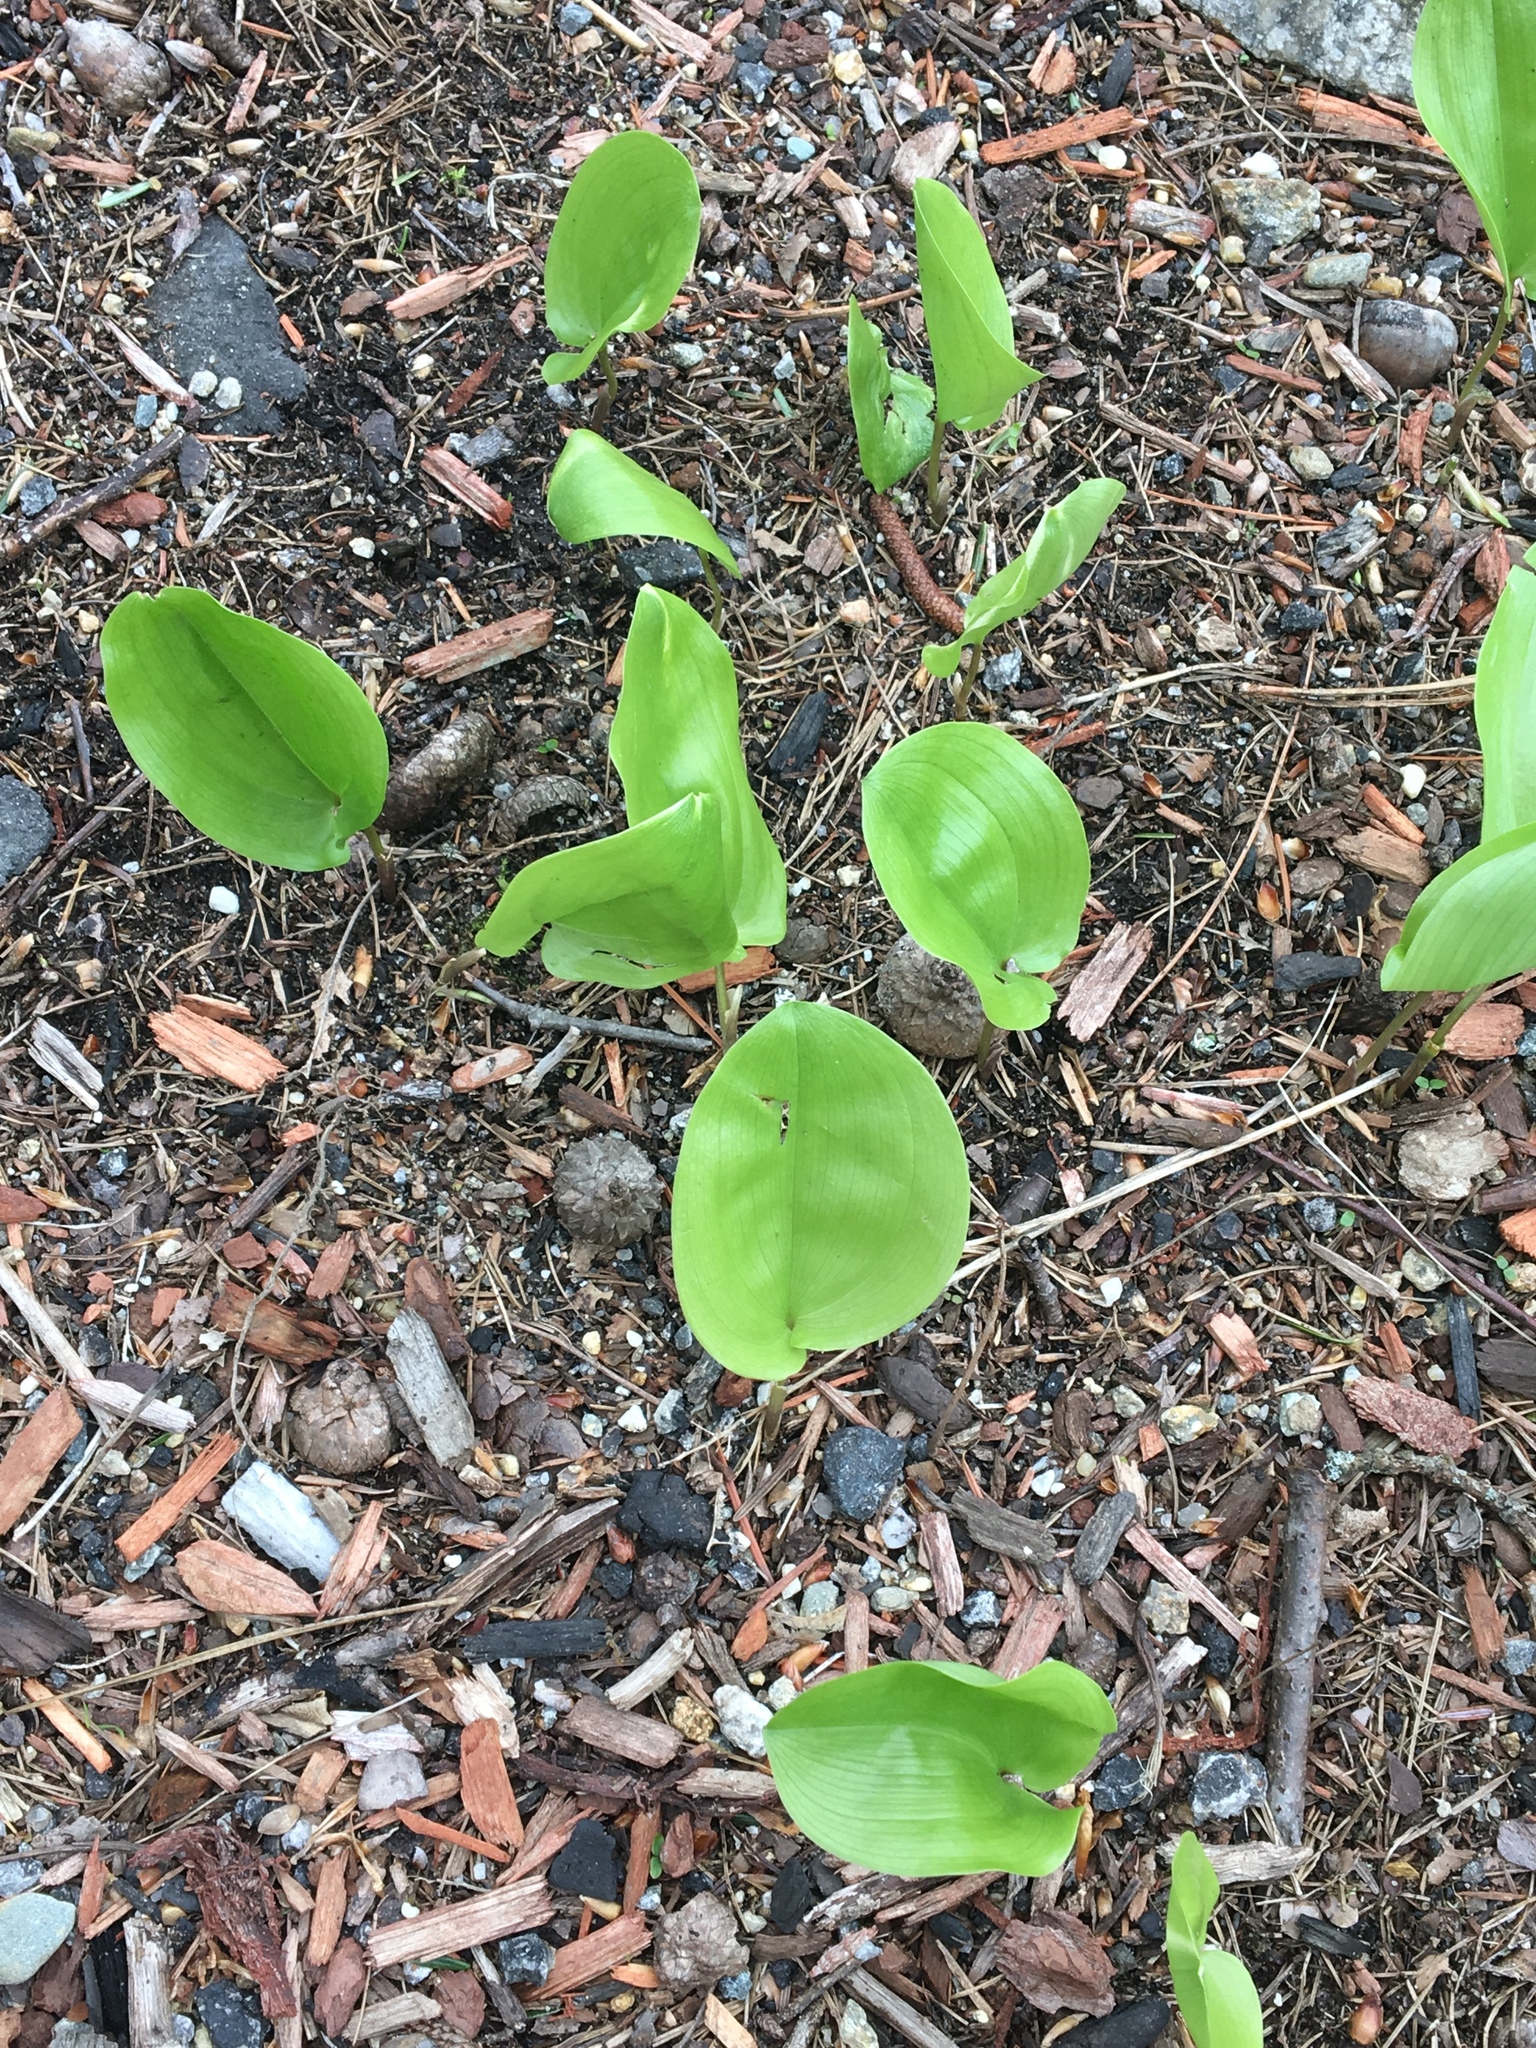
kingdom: Plantae
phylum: Tracheophyta
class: Liliopsida
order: Asparagales
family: Asparagaceae
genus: Maianthemum
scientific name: Maianthemum canadense
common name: False lily-of-the-valley
